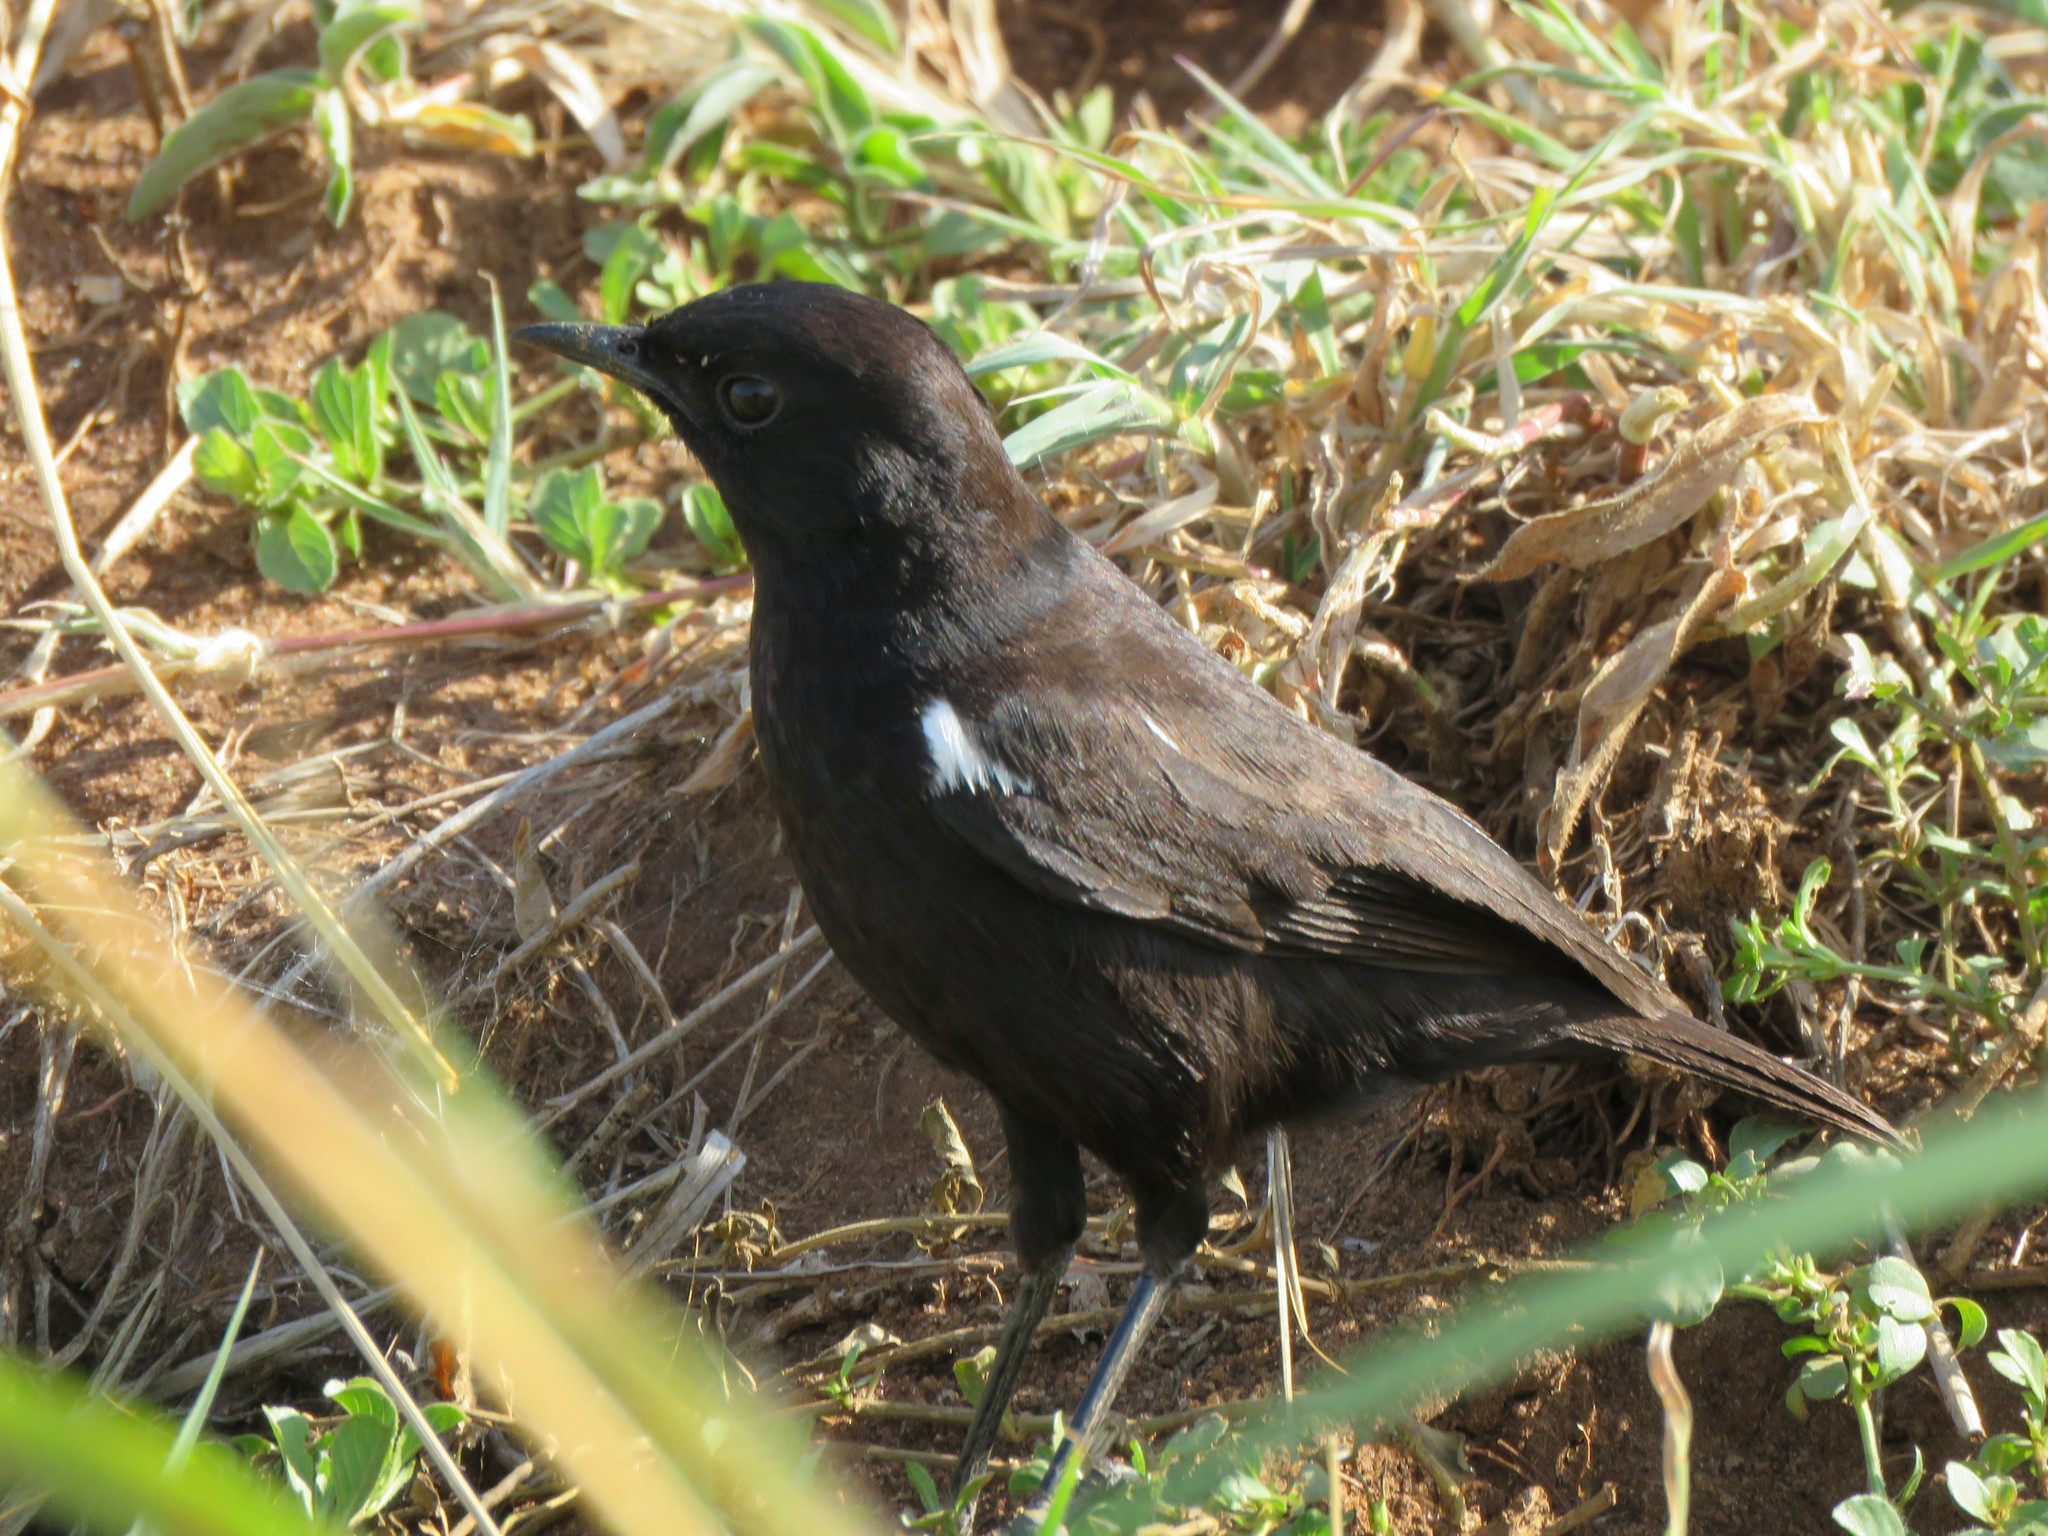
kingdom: Animalia
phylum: Chordata
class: Aves
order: Passeriformes
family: Muscicapidae
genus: Myrmecocichla
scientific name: Myrmecocichla nigra
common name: Sooty chat
